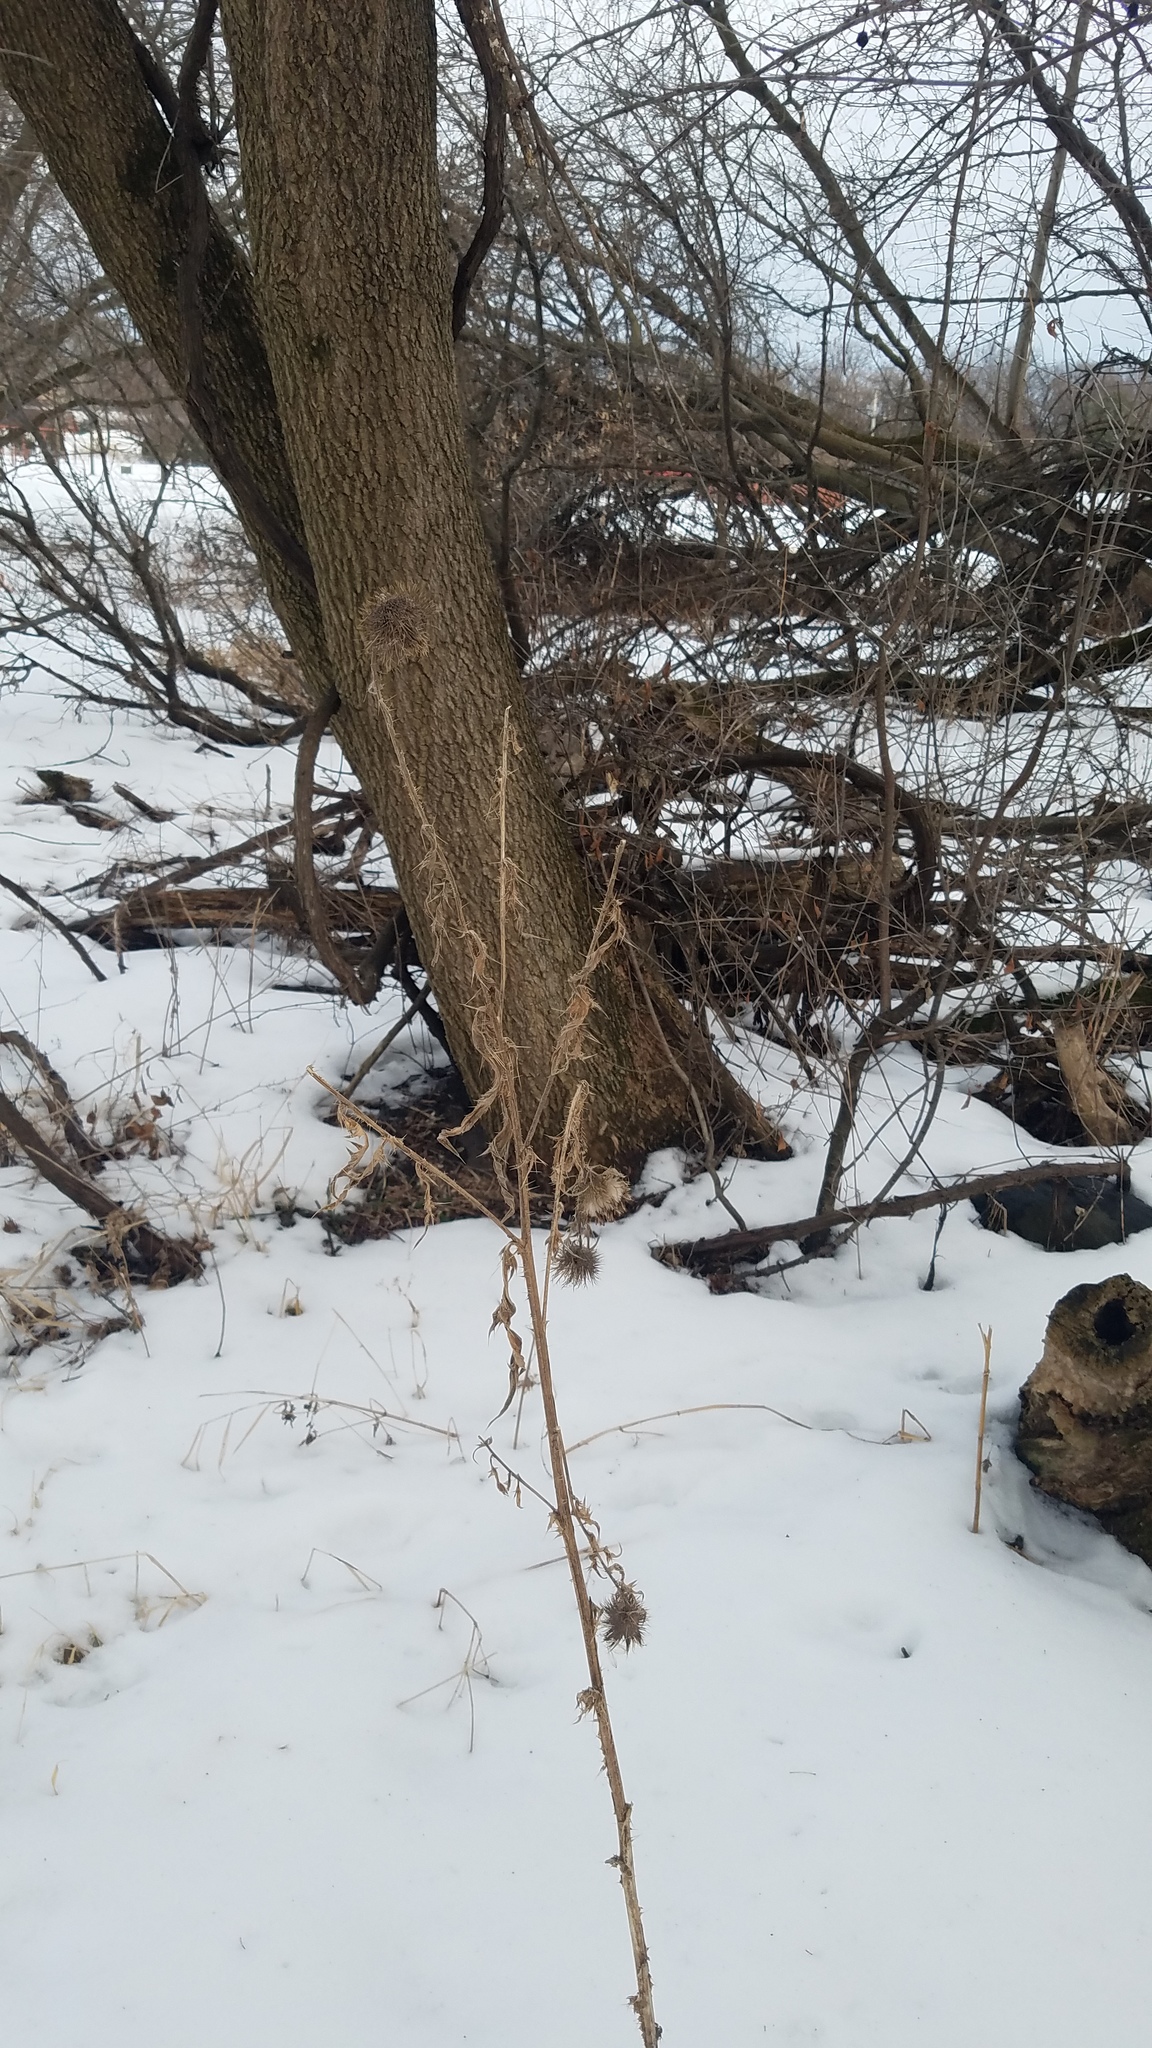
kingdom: Plantae
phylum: Tracheophyta
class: Magnoliopsida
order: Asterales
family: Asteraceae
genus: Cirsium
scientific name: Cirsium vulgare
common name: Bull thistle
